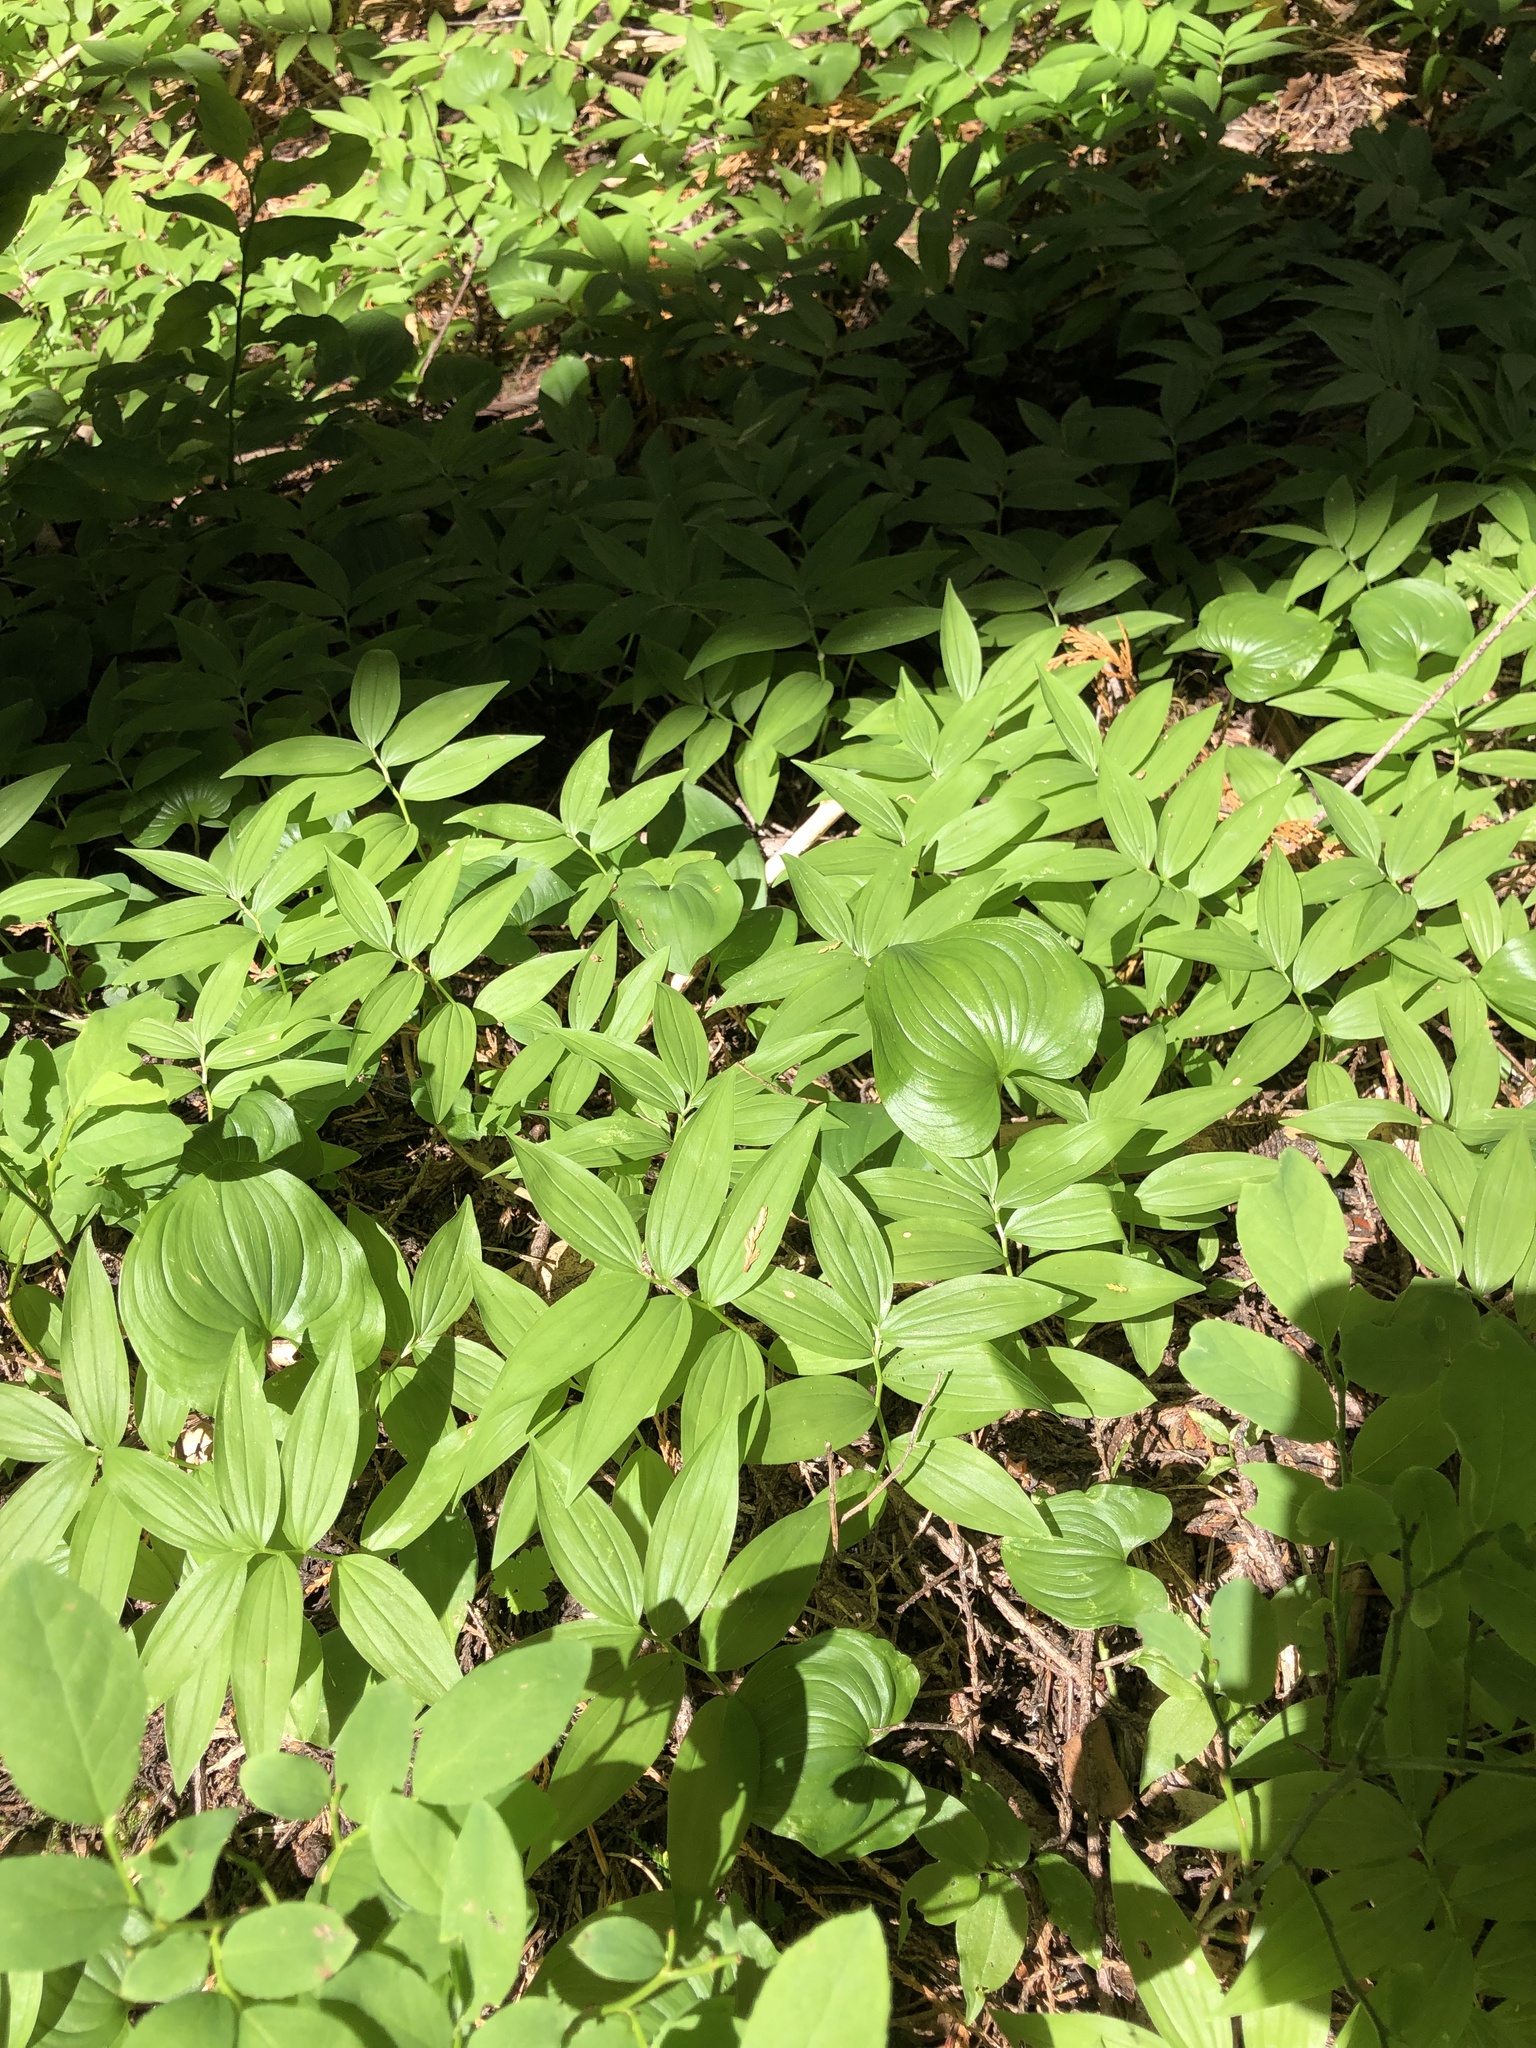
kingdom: Plantae
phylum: Tracheophyta
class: Liliopsida
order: Asparagales
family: Asparagaceae
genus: Maianthemum
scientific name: Maianthemum stellatum
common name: Little false solomon's seal
